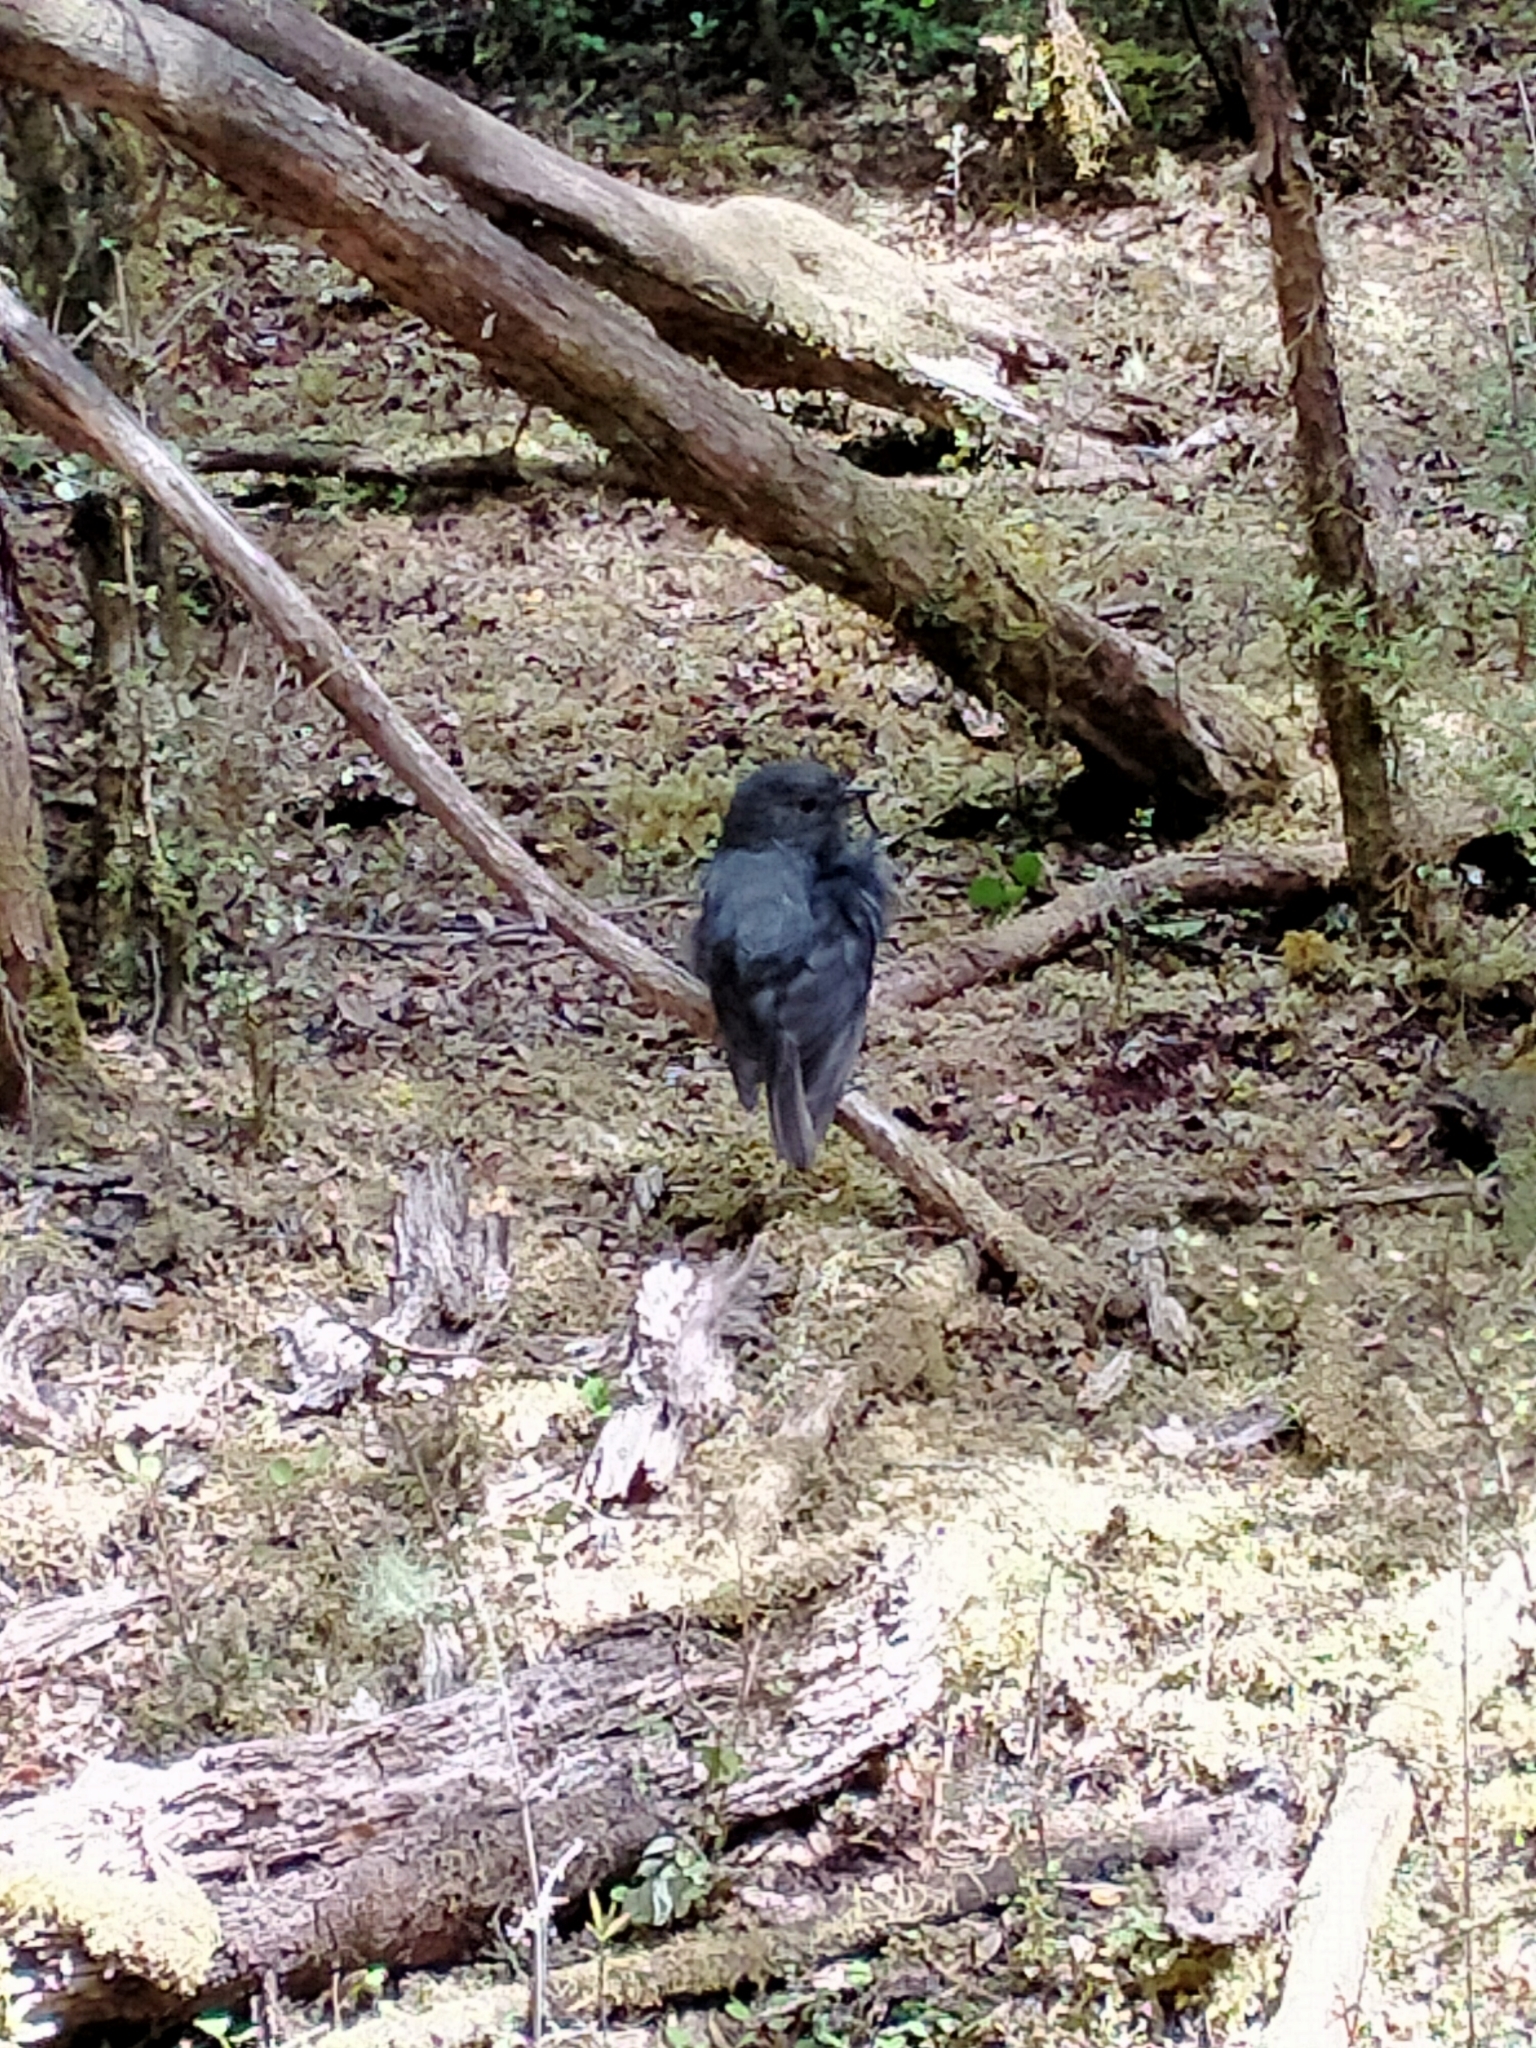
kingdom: Animalia
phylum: Chordata
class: Aves
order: Passeriformes
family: Petroicidae
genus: Petroica
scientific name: Petroica australis
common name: New zealand robin
